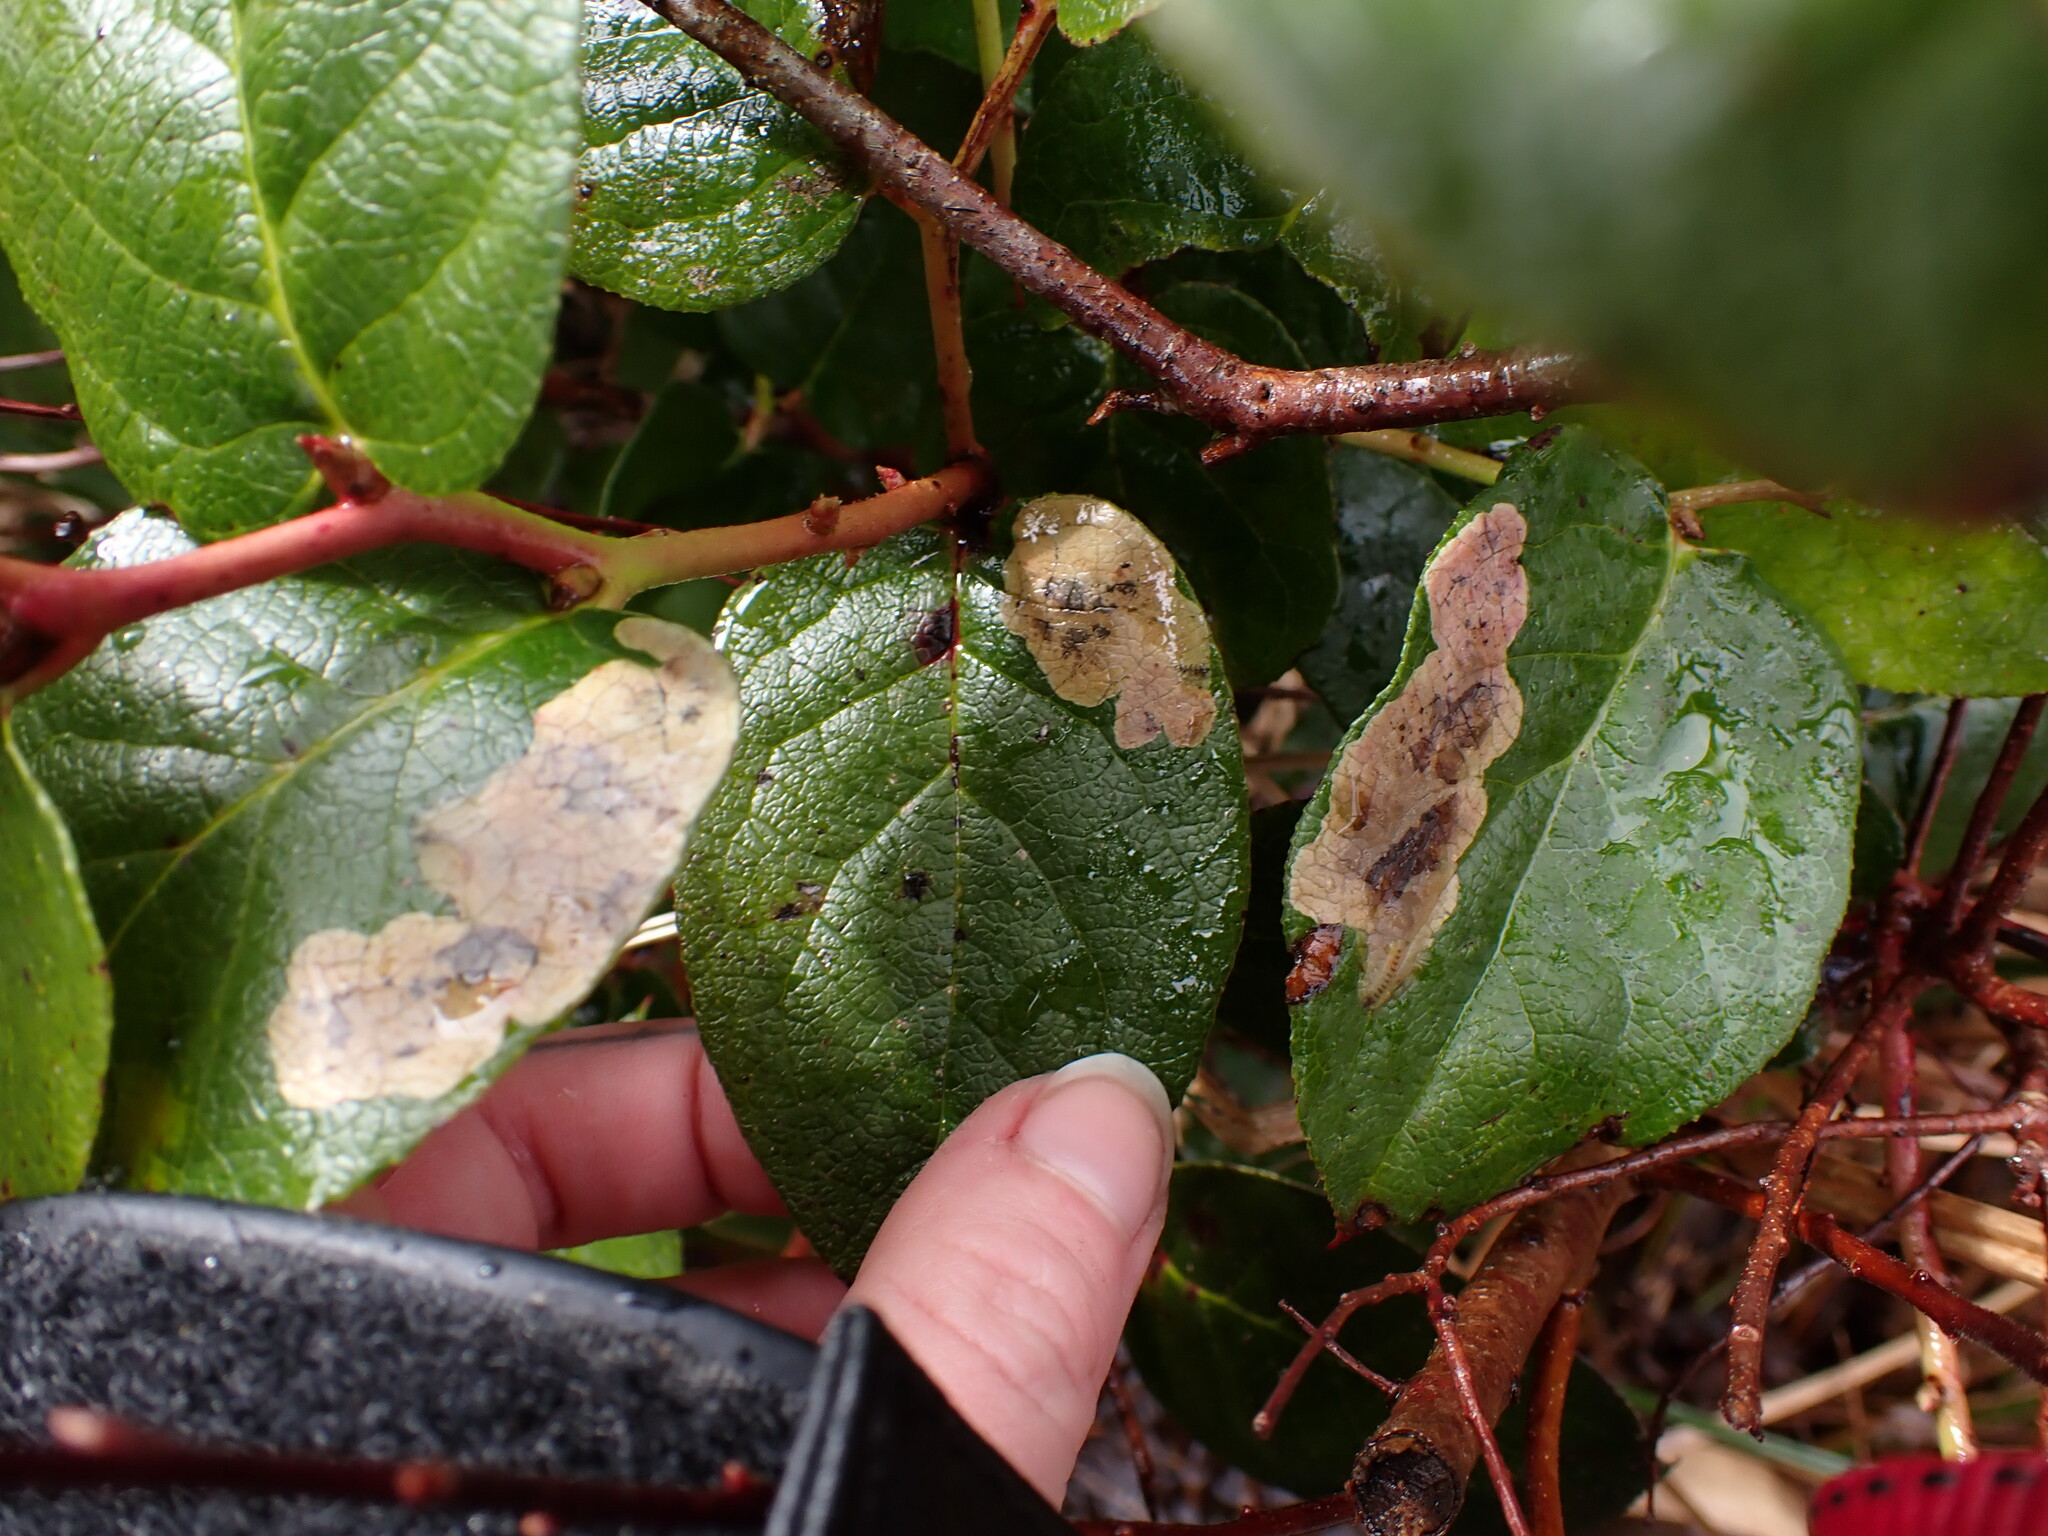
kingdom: Animalia
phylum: Arthropoda
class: Insecta
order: Lepidoptera
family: Gracillariidae
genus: Cameraria
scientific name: Cameraria gaultheriella
